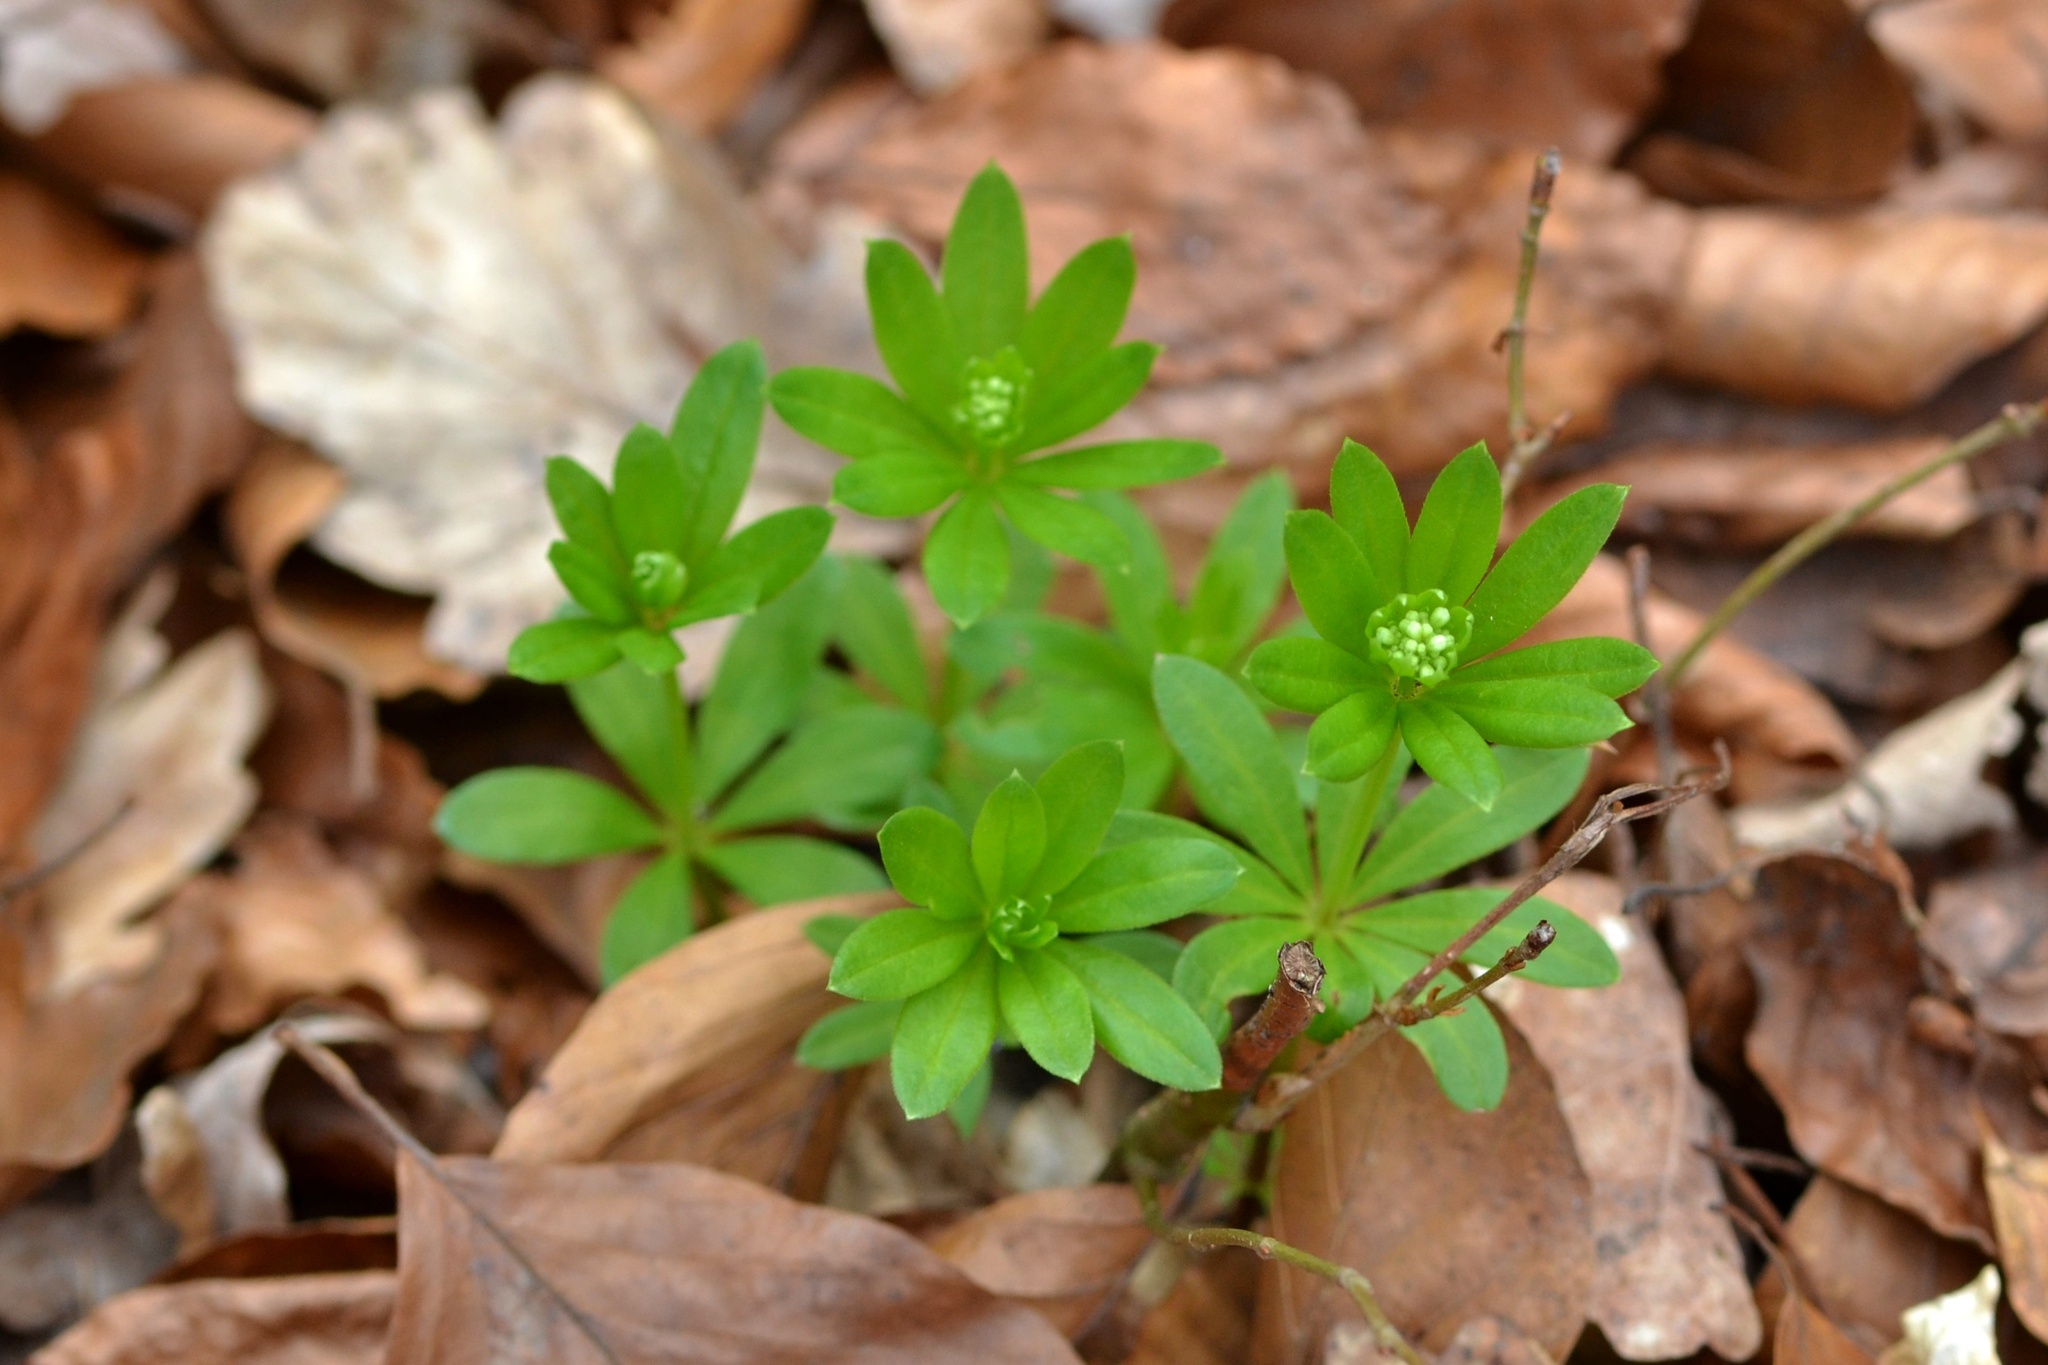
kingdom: Plantae
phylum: Tracheophyta
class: Magnoliopsida
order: Gentianales
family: Rubiaceae
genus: Galium
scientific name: Galium odoratum
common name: Sweet woodruff
